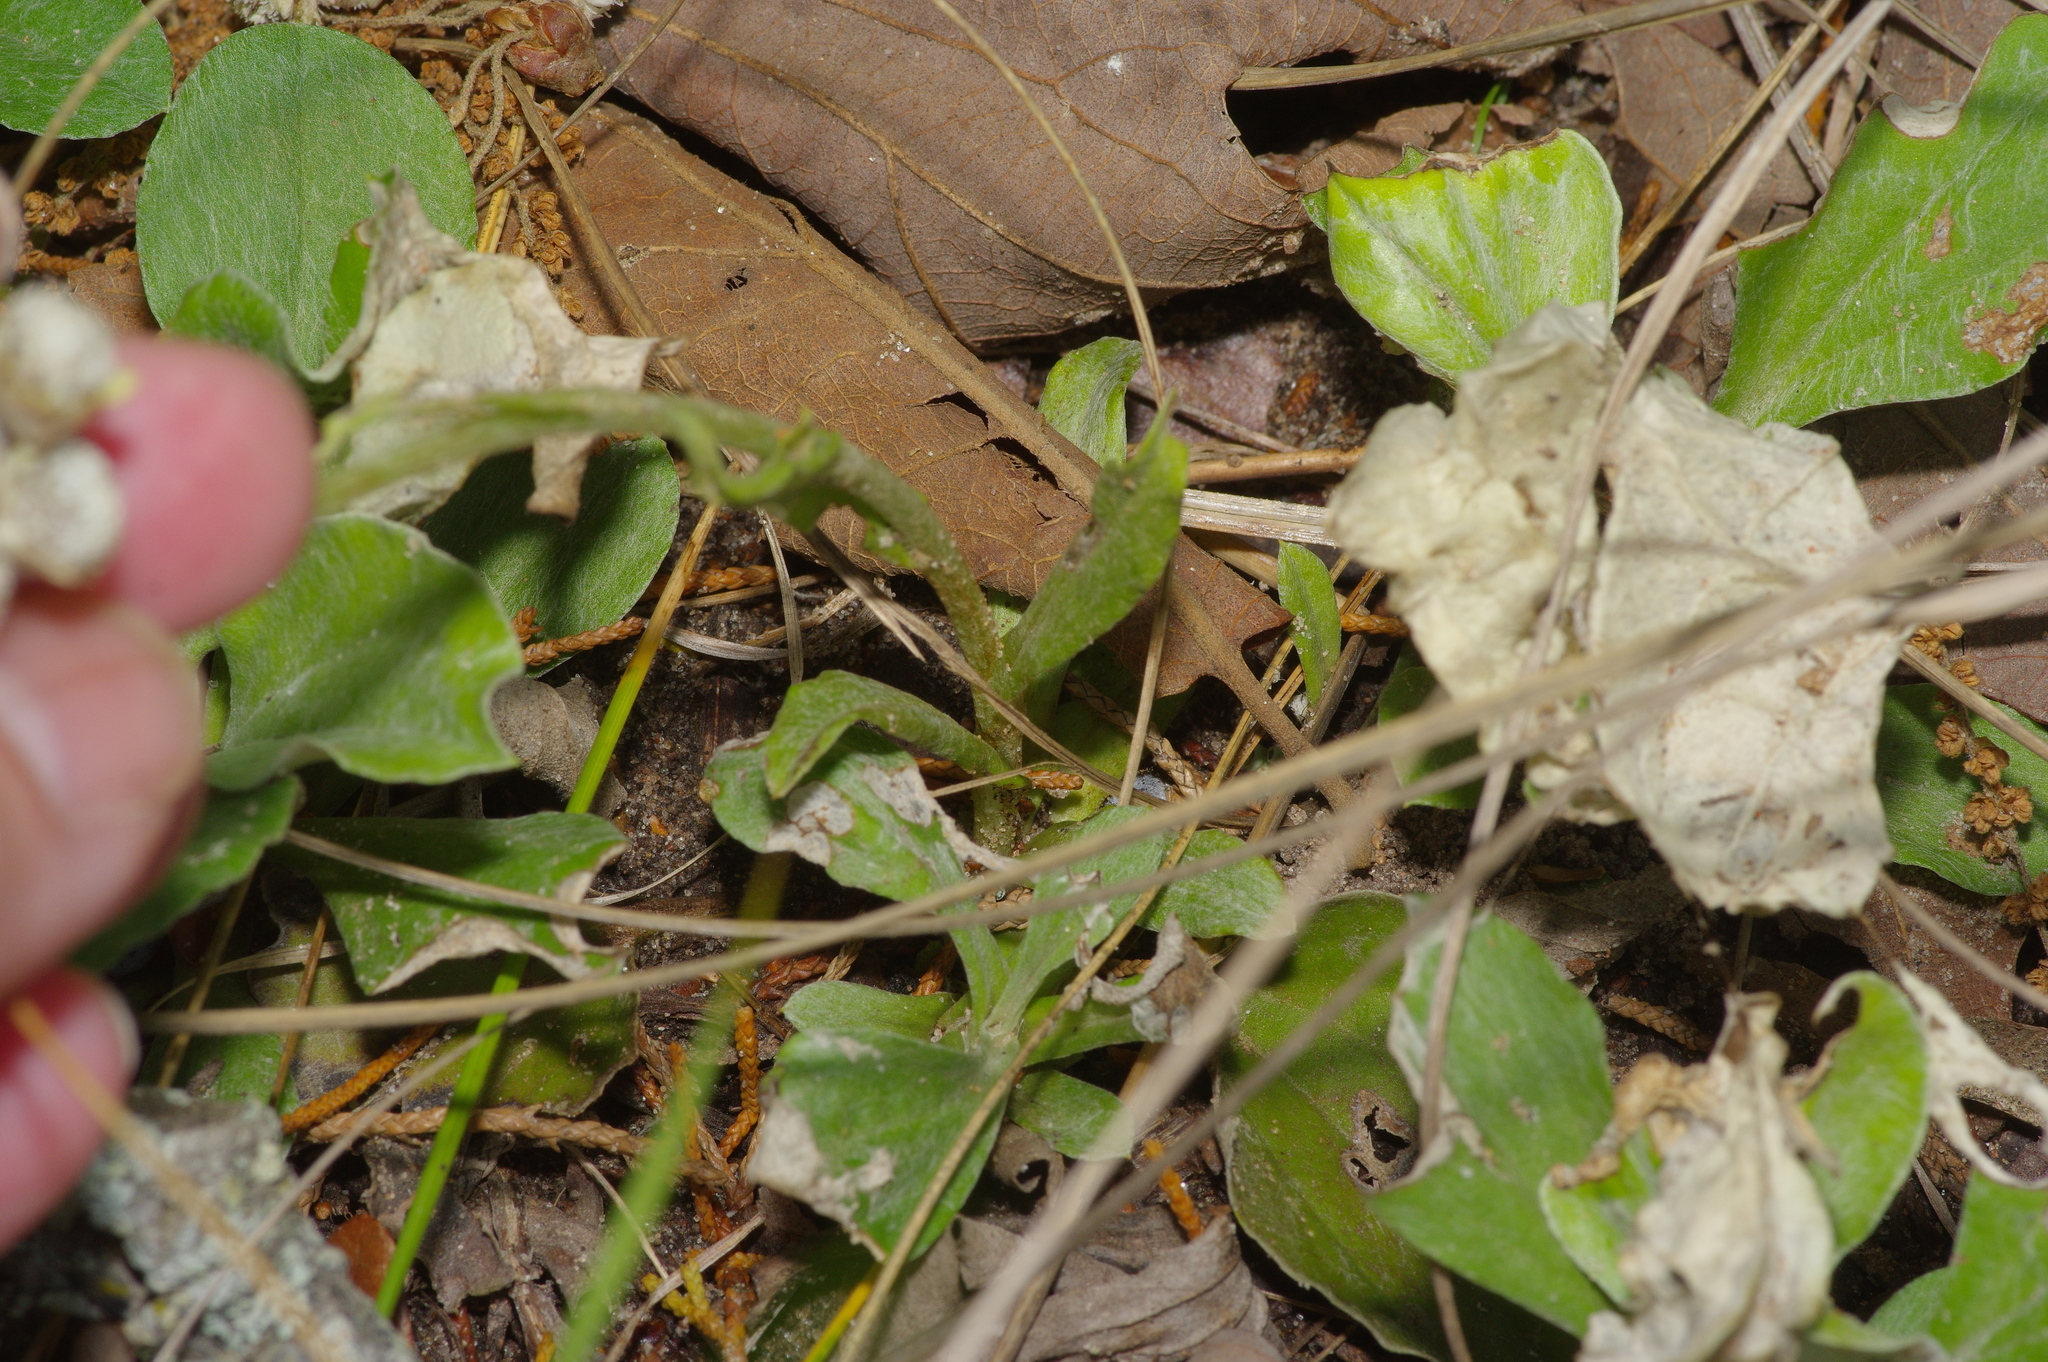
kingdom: Plantae
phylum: Tracheophyta
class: Magnoliopsida
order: Asterales
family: Asteraceae
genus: Antennaria
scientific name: Antennaria parlinii
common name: Parlin's pussytoes
